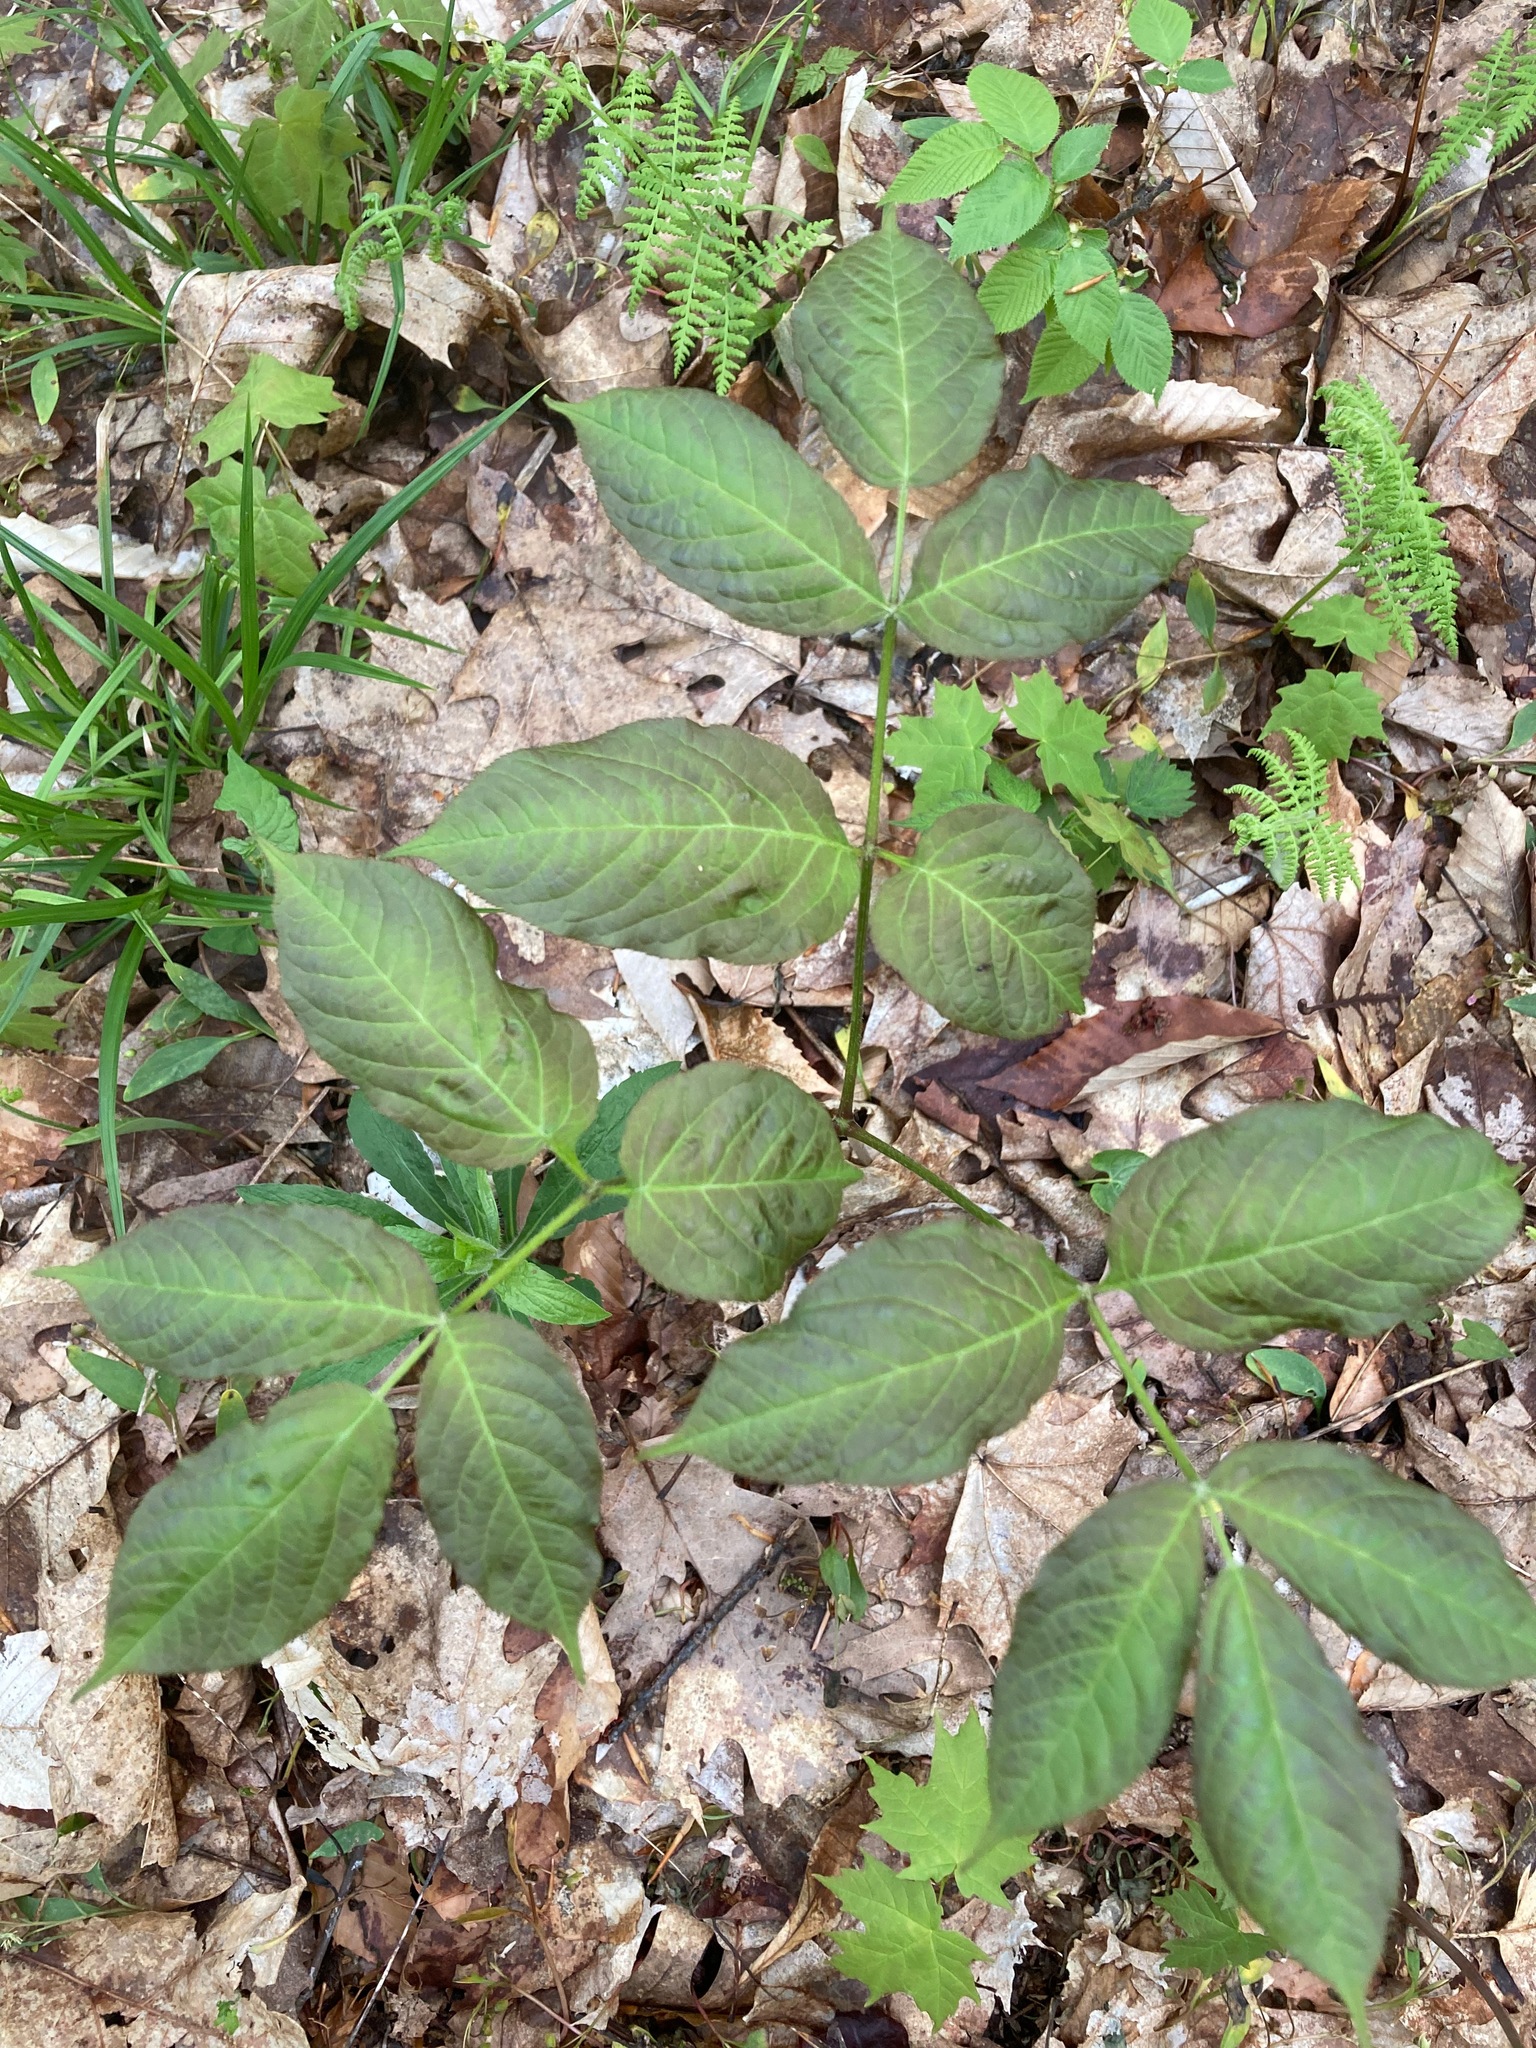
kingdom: Plantae
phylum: Tracheophyta
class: Magnoliopsida
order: Apiales
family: Araliaceae
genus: Aralia
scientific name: Aralia nudicaulis
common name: Wild sarsaparilla
